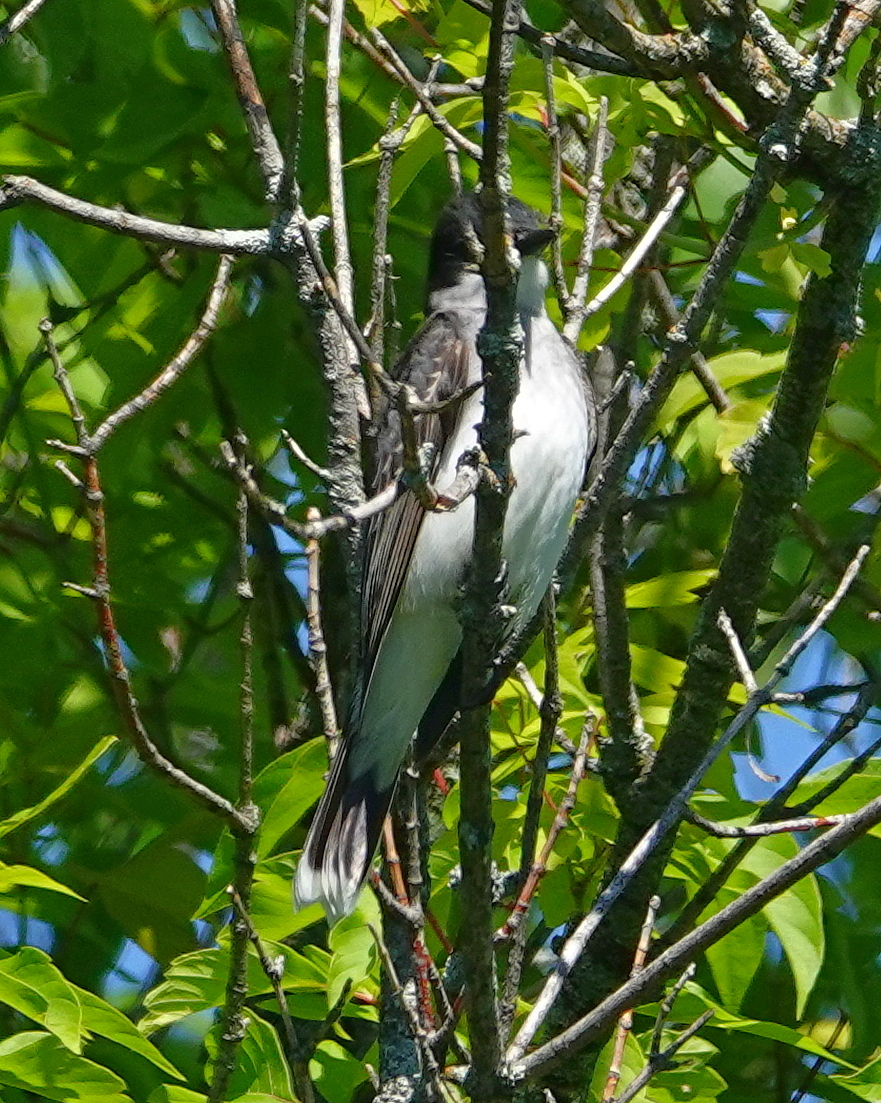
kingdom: Animalia
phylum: Chordata
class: Aves
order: Passeriformes
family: Tyrannidae
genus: Tyrannus
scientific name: Tyrannus tyrannus
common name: Eastern kingbird
